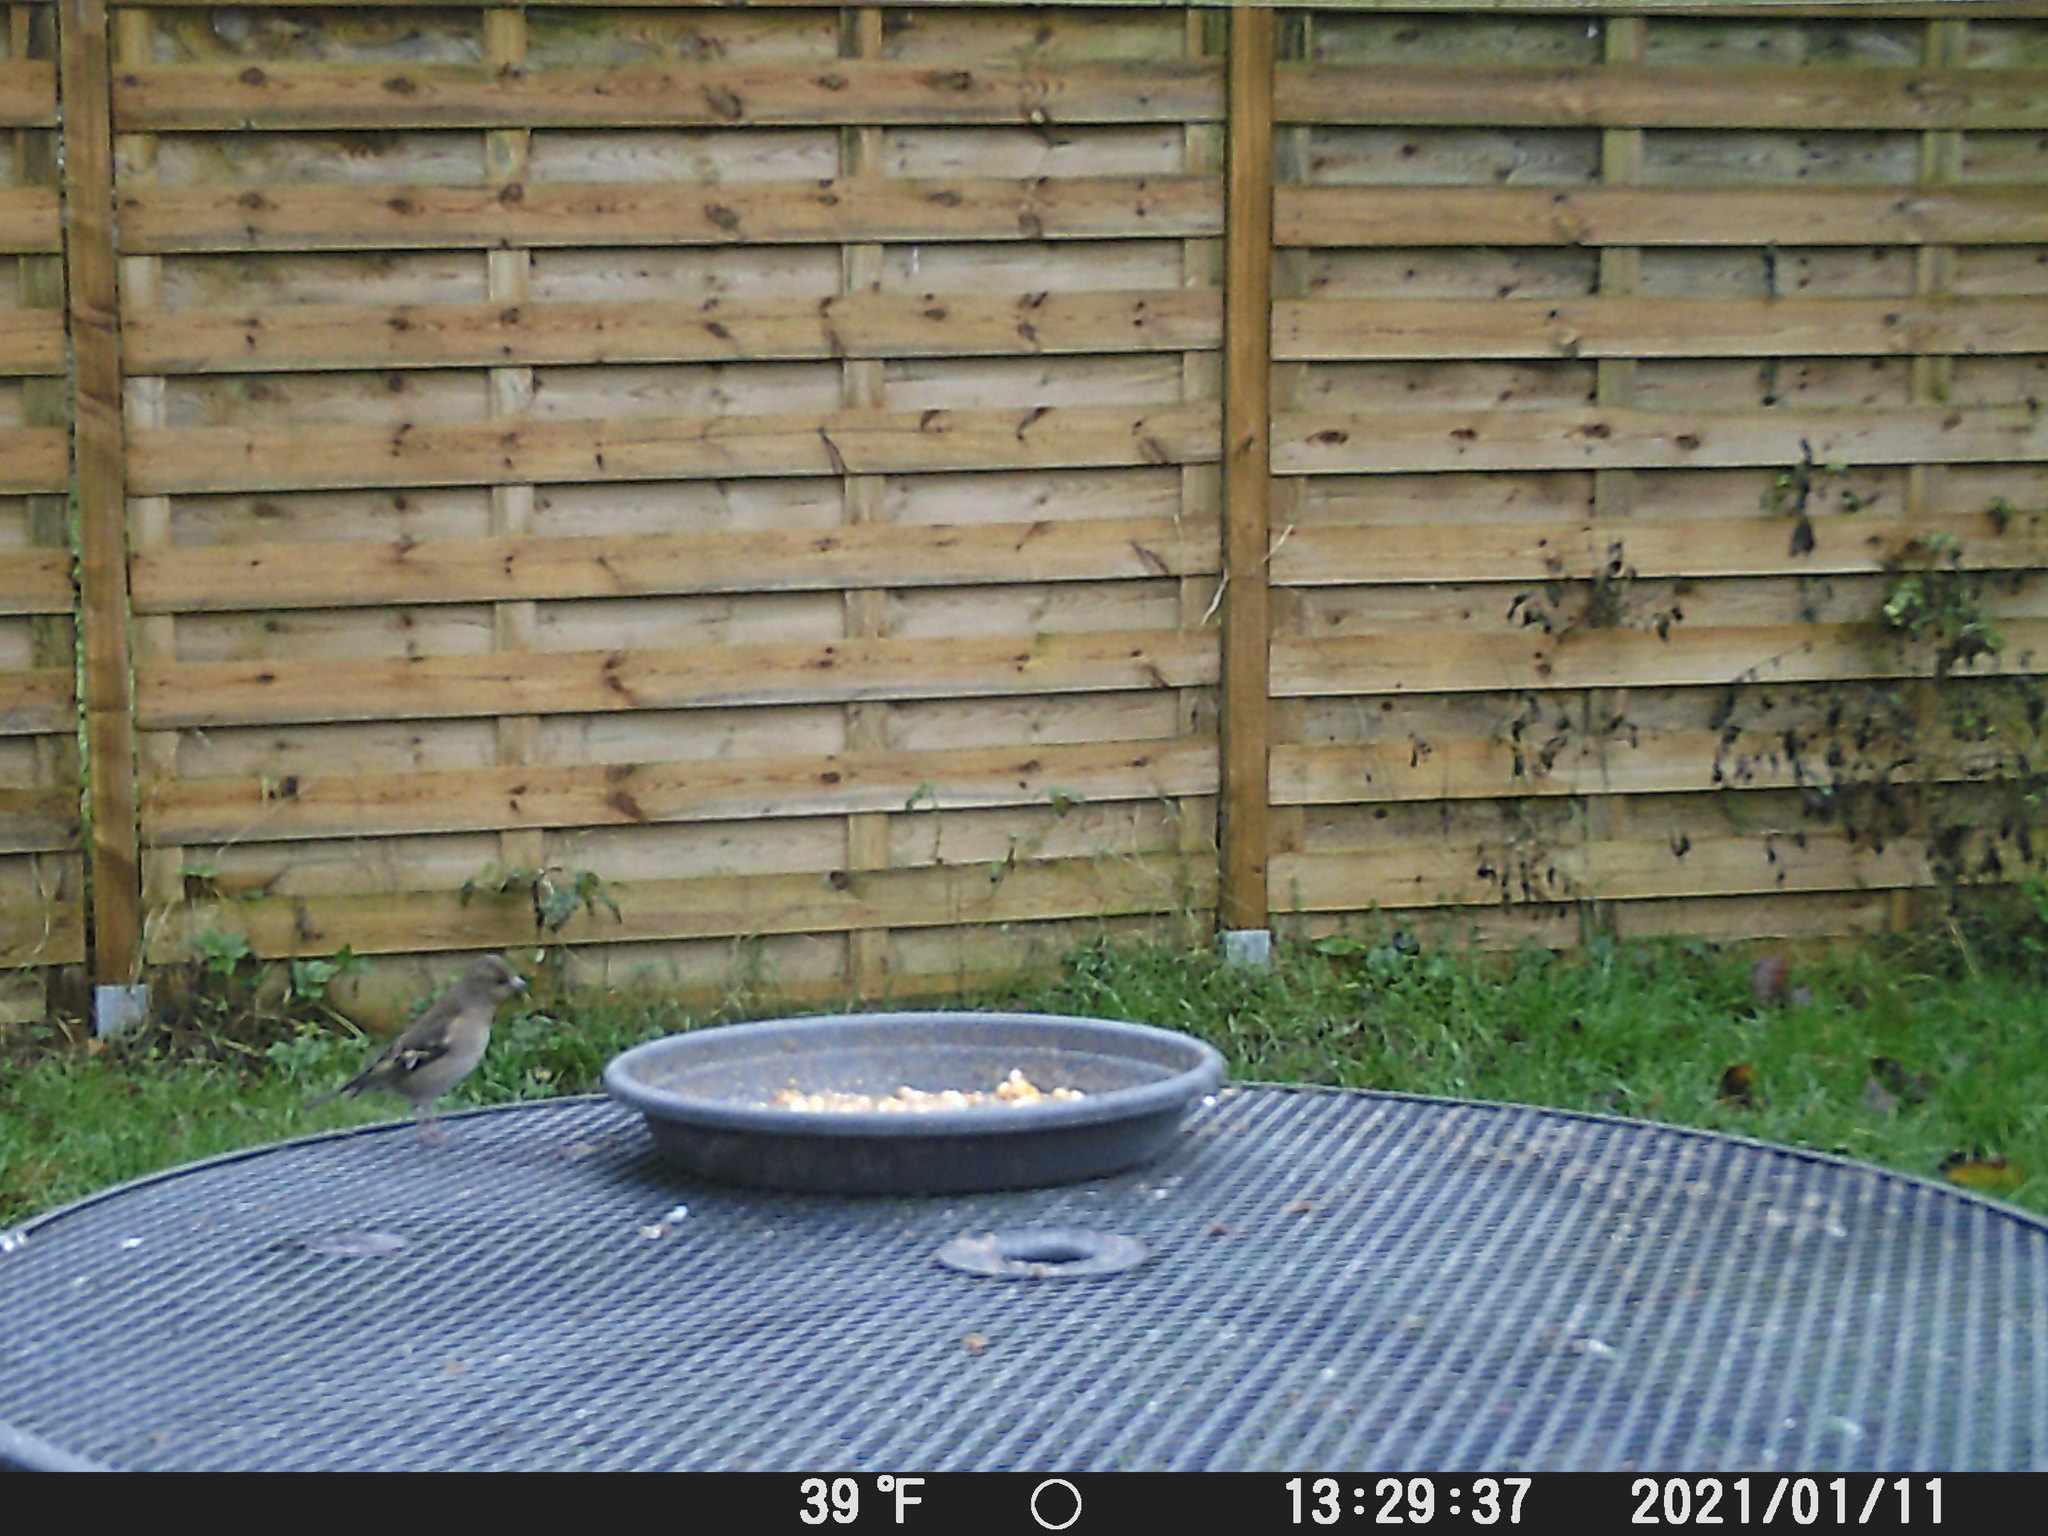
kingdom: Animalia
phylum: Chordata
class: Aves
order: Passeriformes
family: Fringillidae
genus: Fringilla
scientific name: Fringilla coelebs
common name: Common chaffinch
